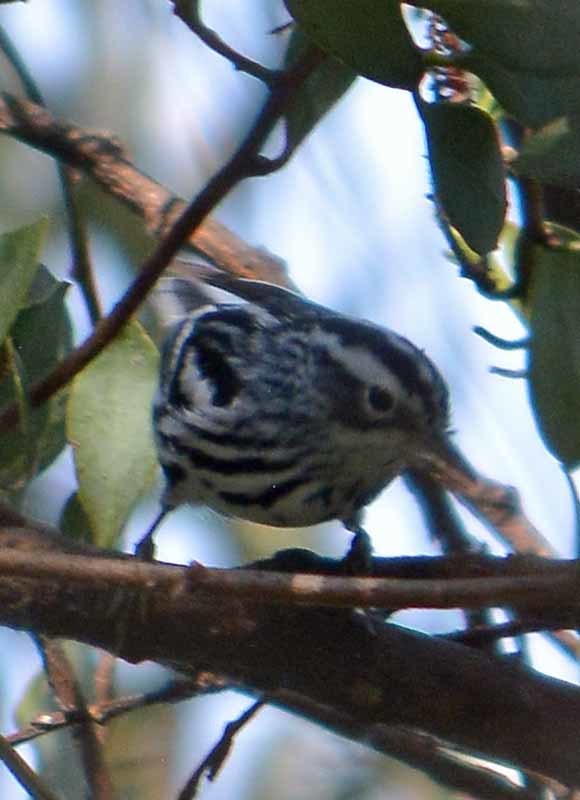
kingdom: Animalia
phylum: Chordata
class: Aves
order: Passeriformes
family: Parulidae
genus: Mniotilta
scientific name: Mniotilta varia
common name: Black-and-white warbler
